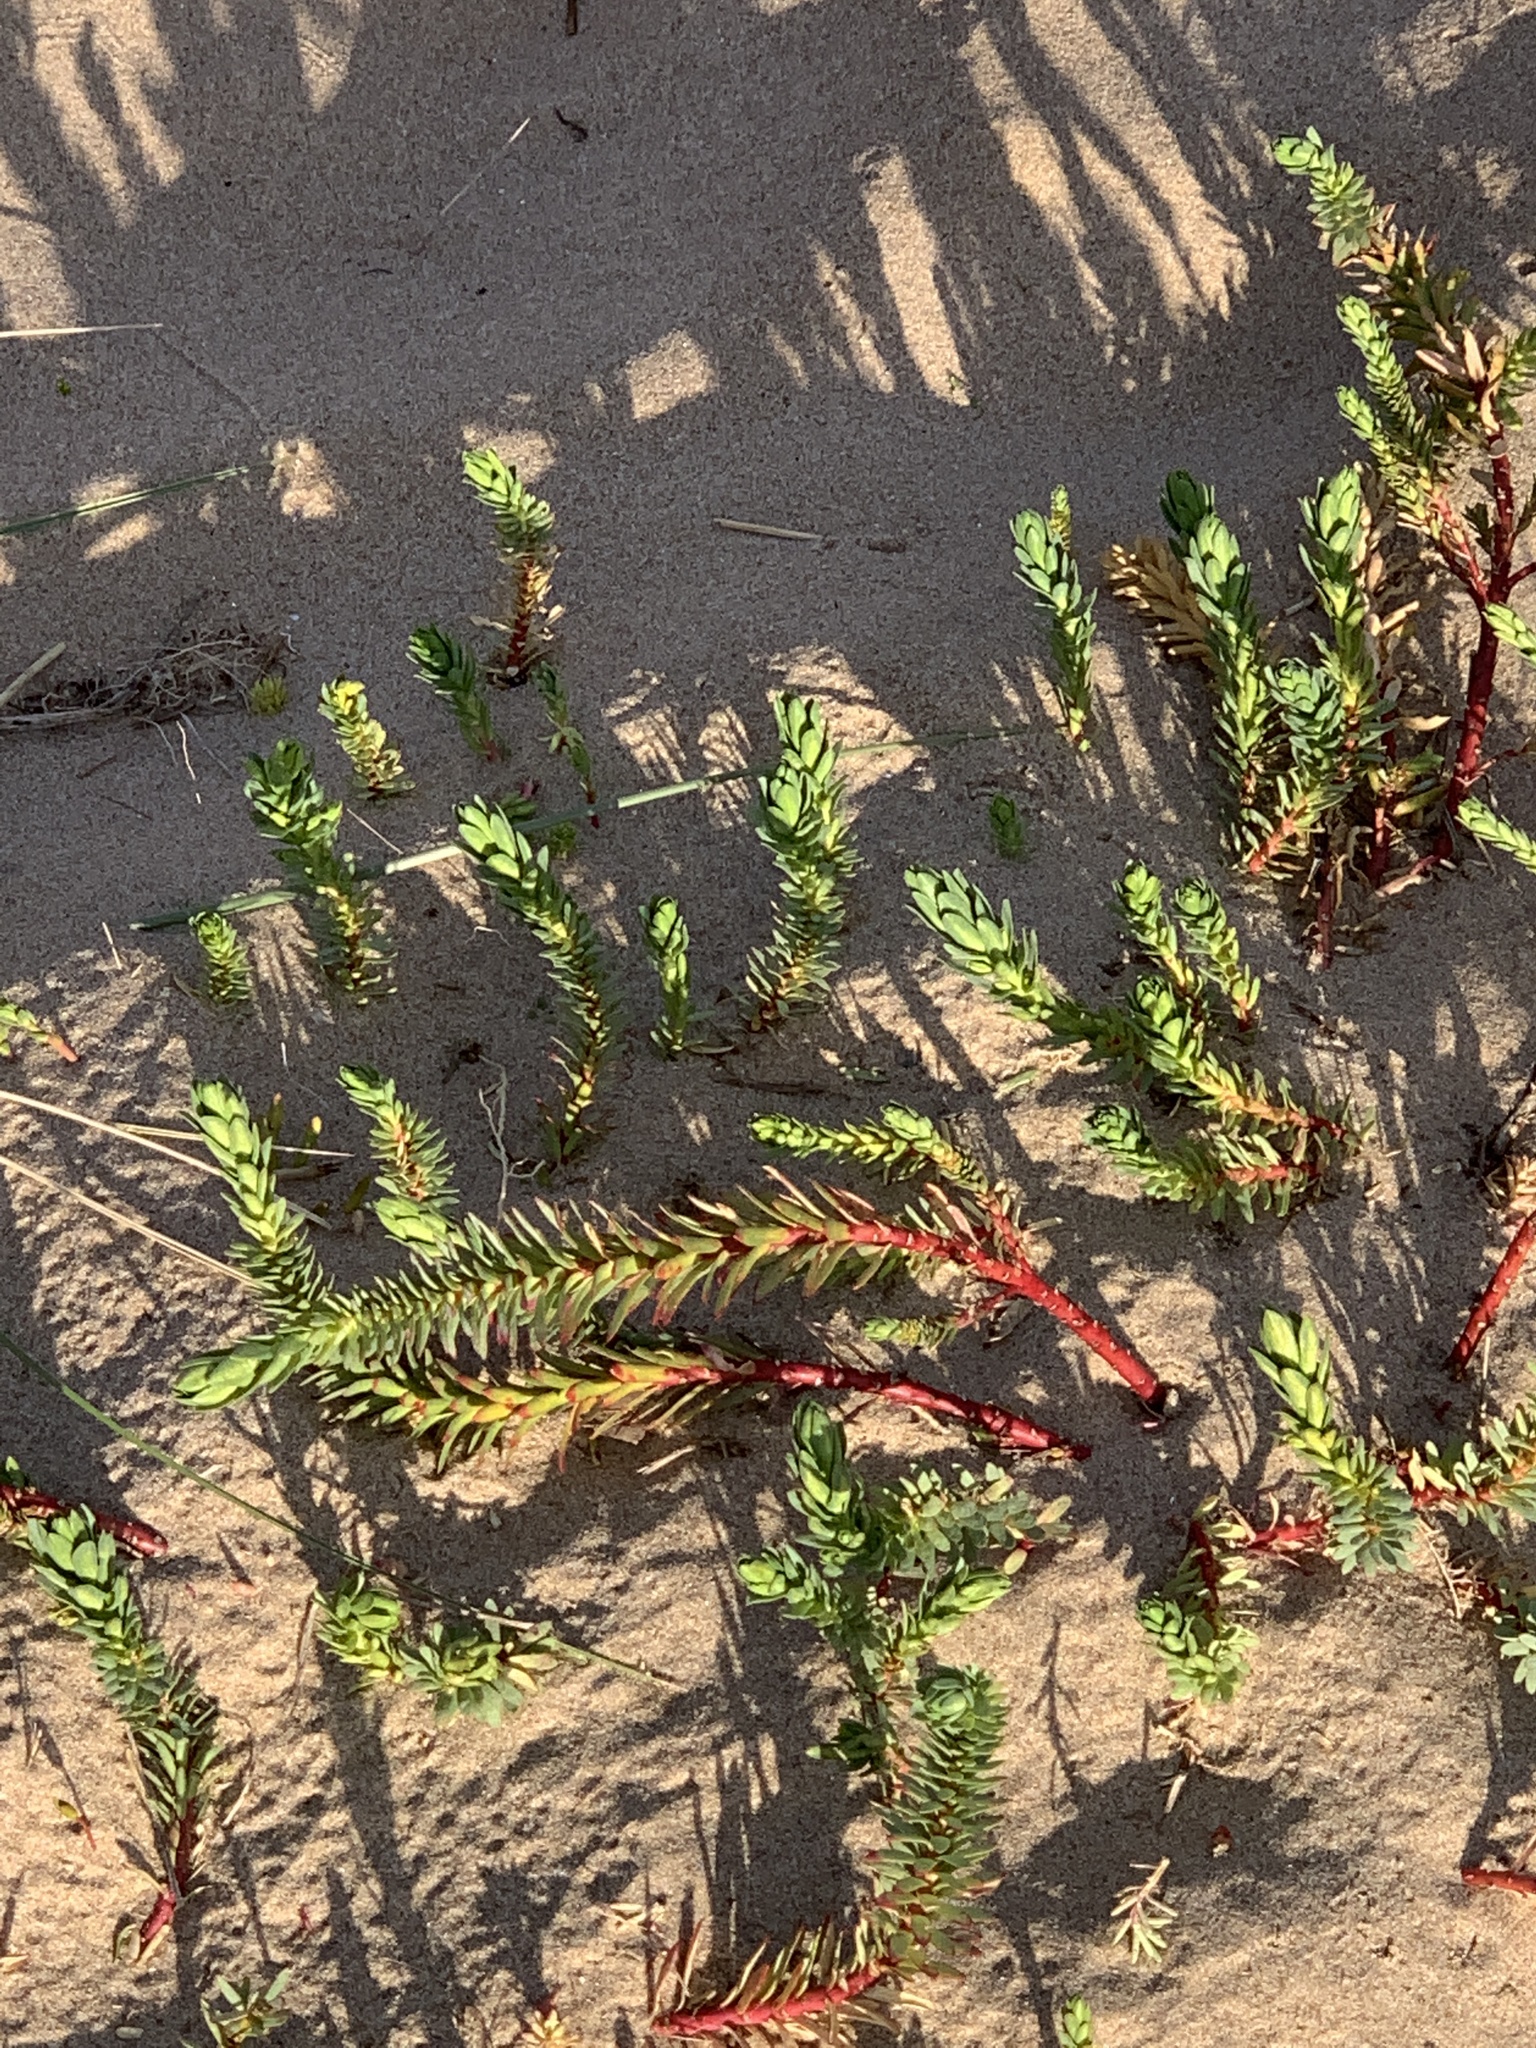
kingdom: Plantae
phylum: Tracheophyta
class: Magnoliopsida
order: Malpighiales
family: Euphorbiaceae
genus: Euphorbia
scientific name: Euphorbia paralias
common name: Sea spurge
